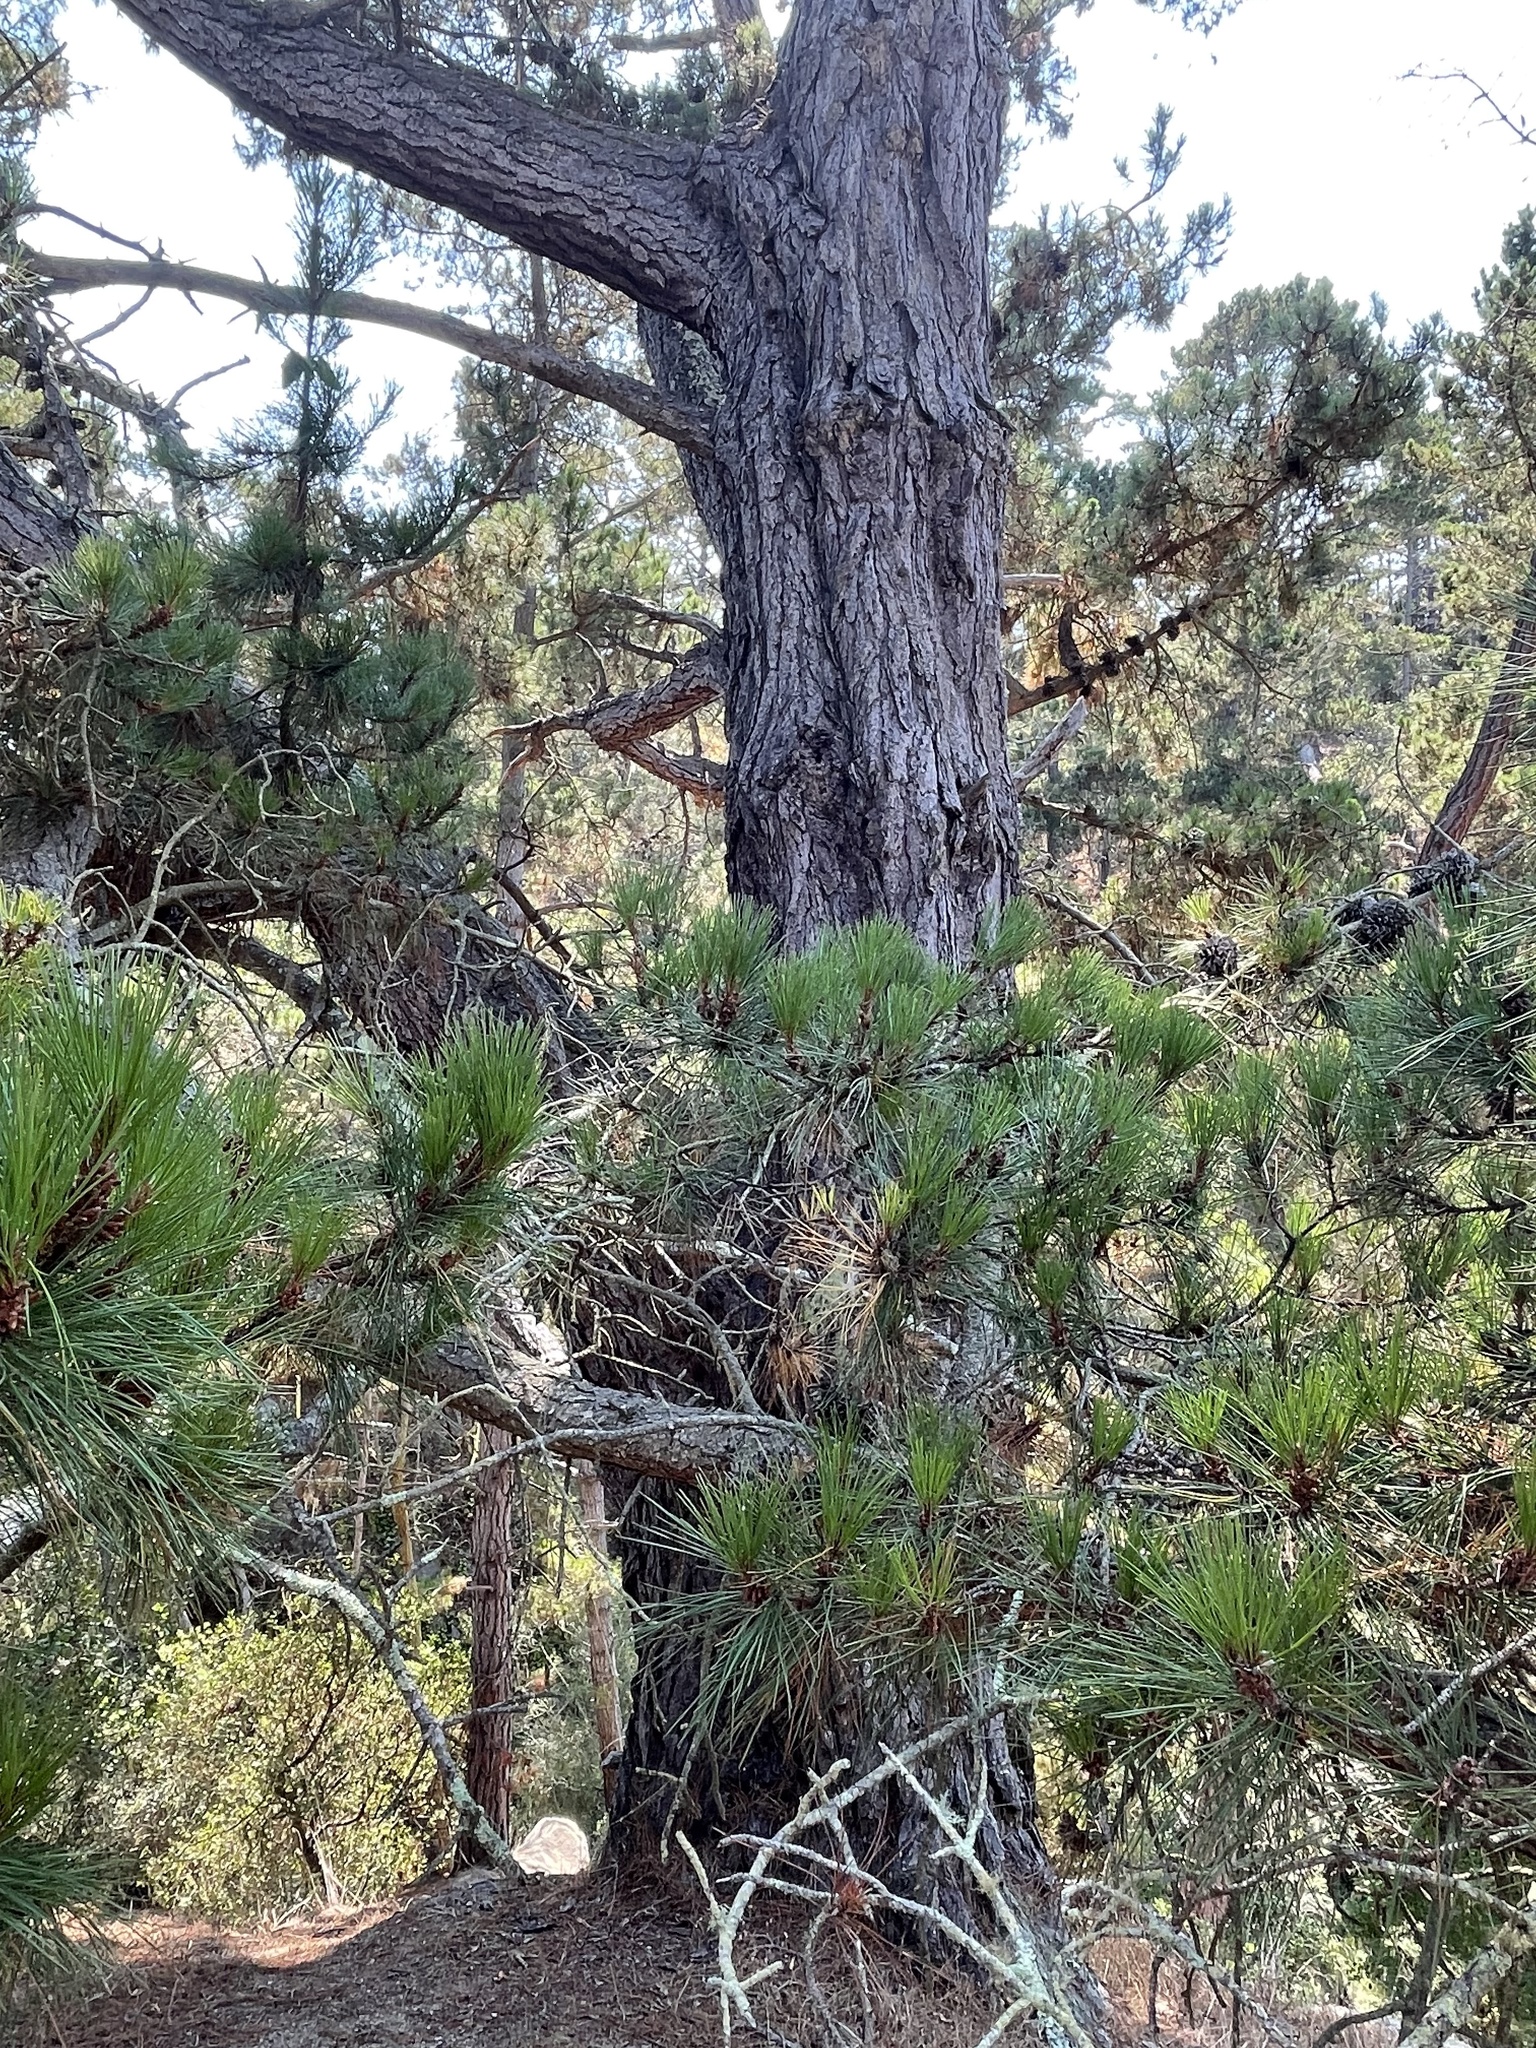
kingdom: Plantae
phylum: Tracheophyta
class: Pinopsida
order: Pinales
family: Pinaceae
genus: Pinus
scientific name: Pinus muricata
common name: Bishop pine
